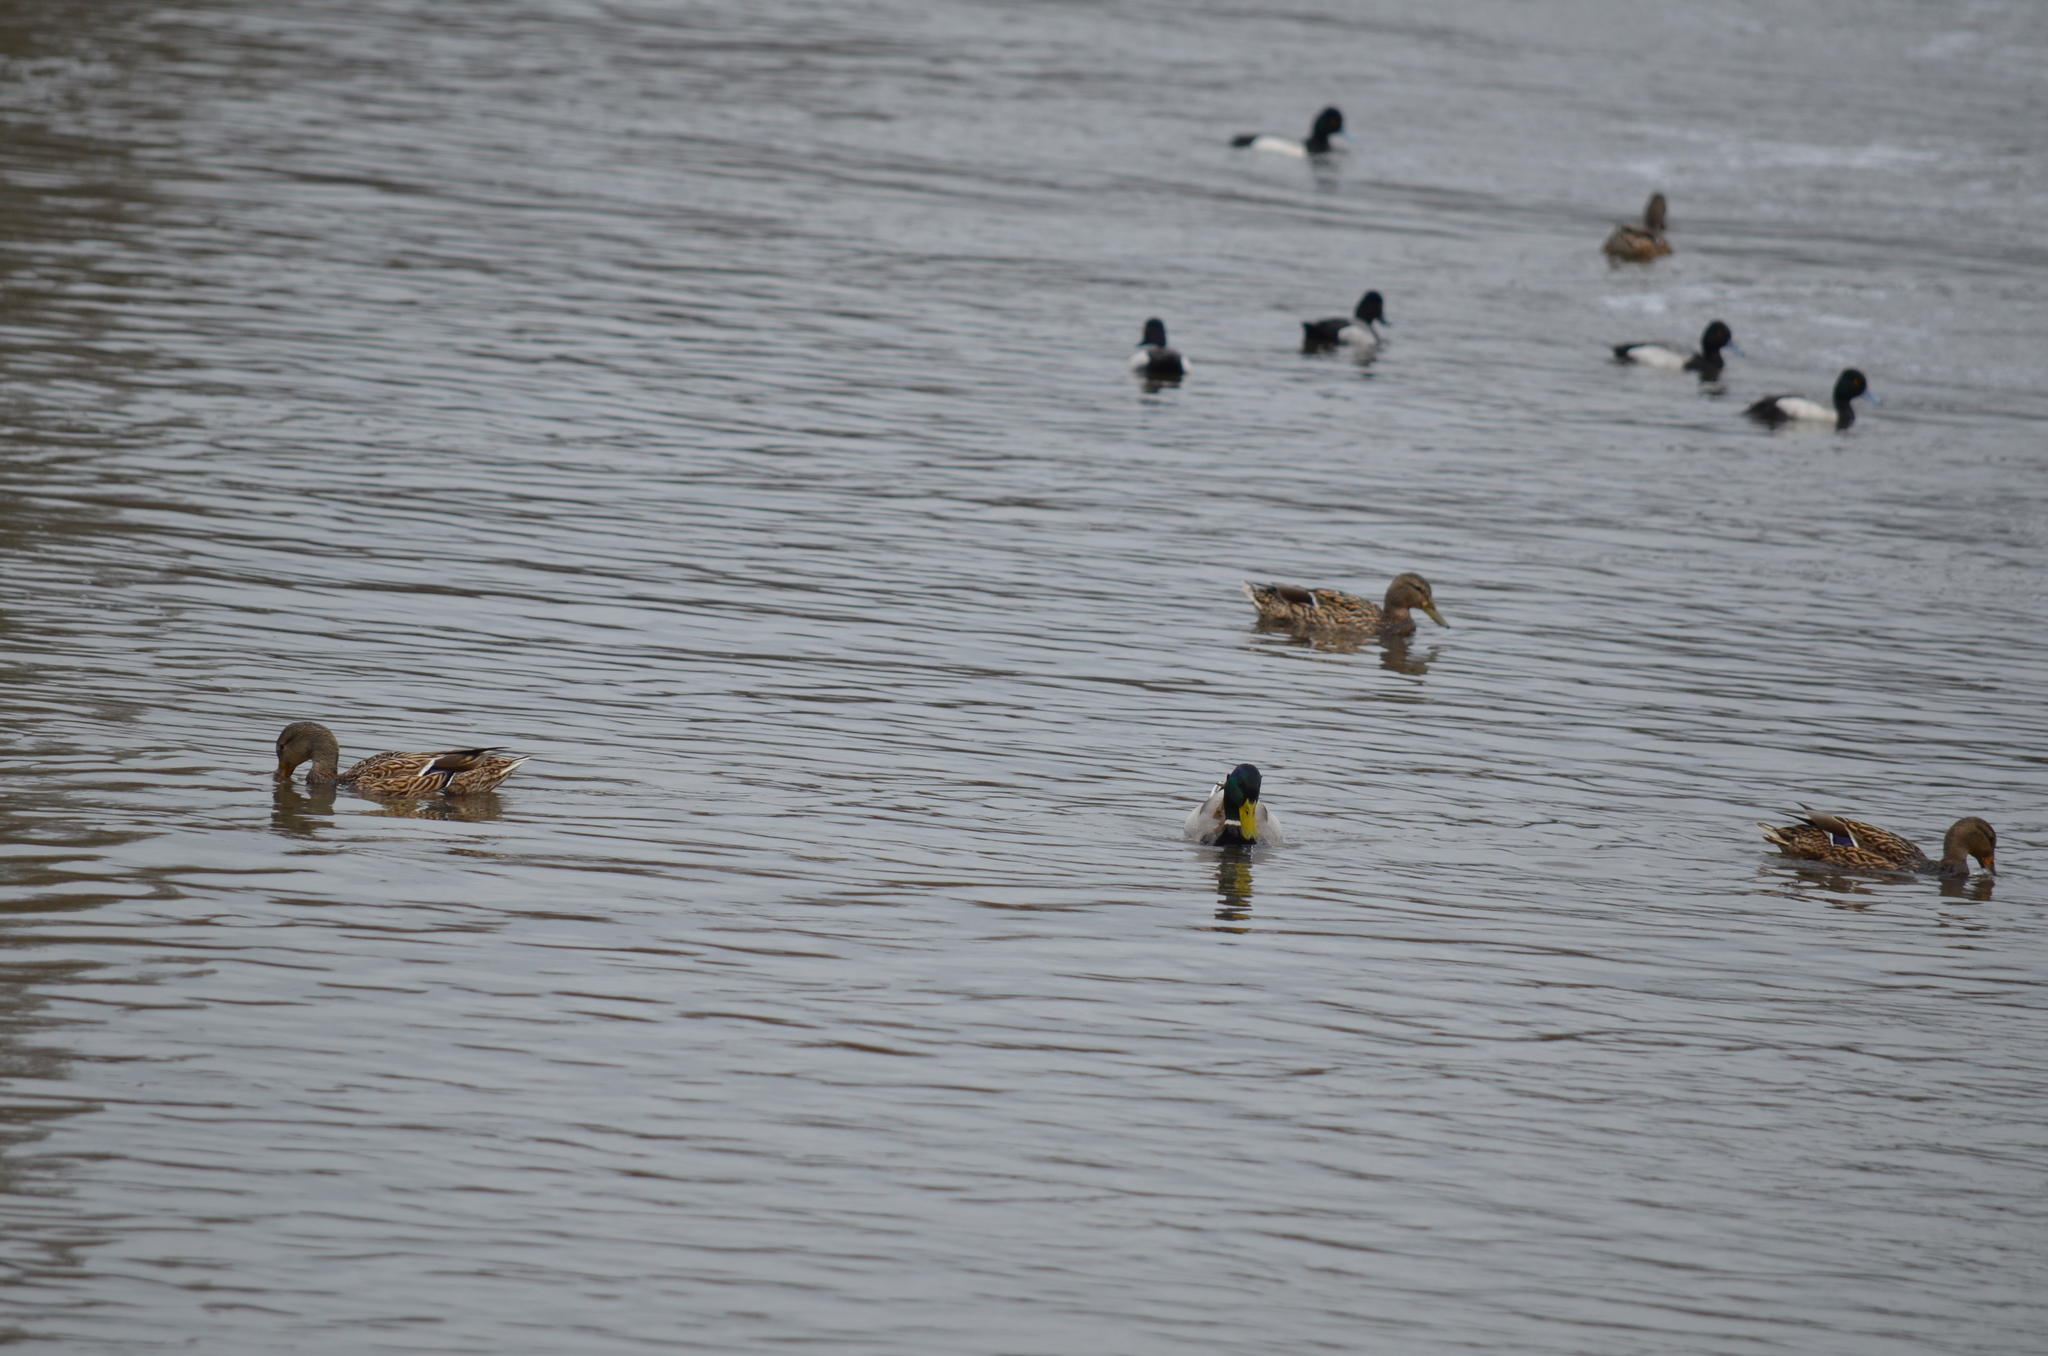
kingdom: Animalia
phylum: Chordata
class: Aves
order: Anseriformes
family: Anatidae
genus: Anas
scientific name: Anas platyrhynchos
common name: Mallard
